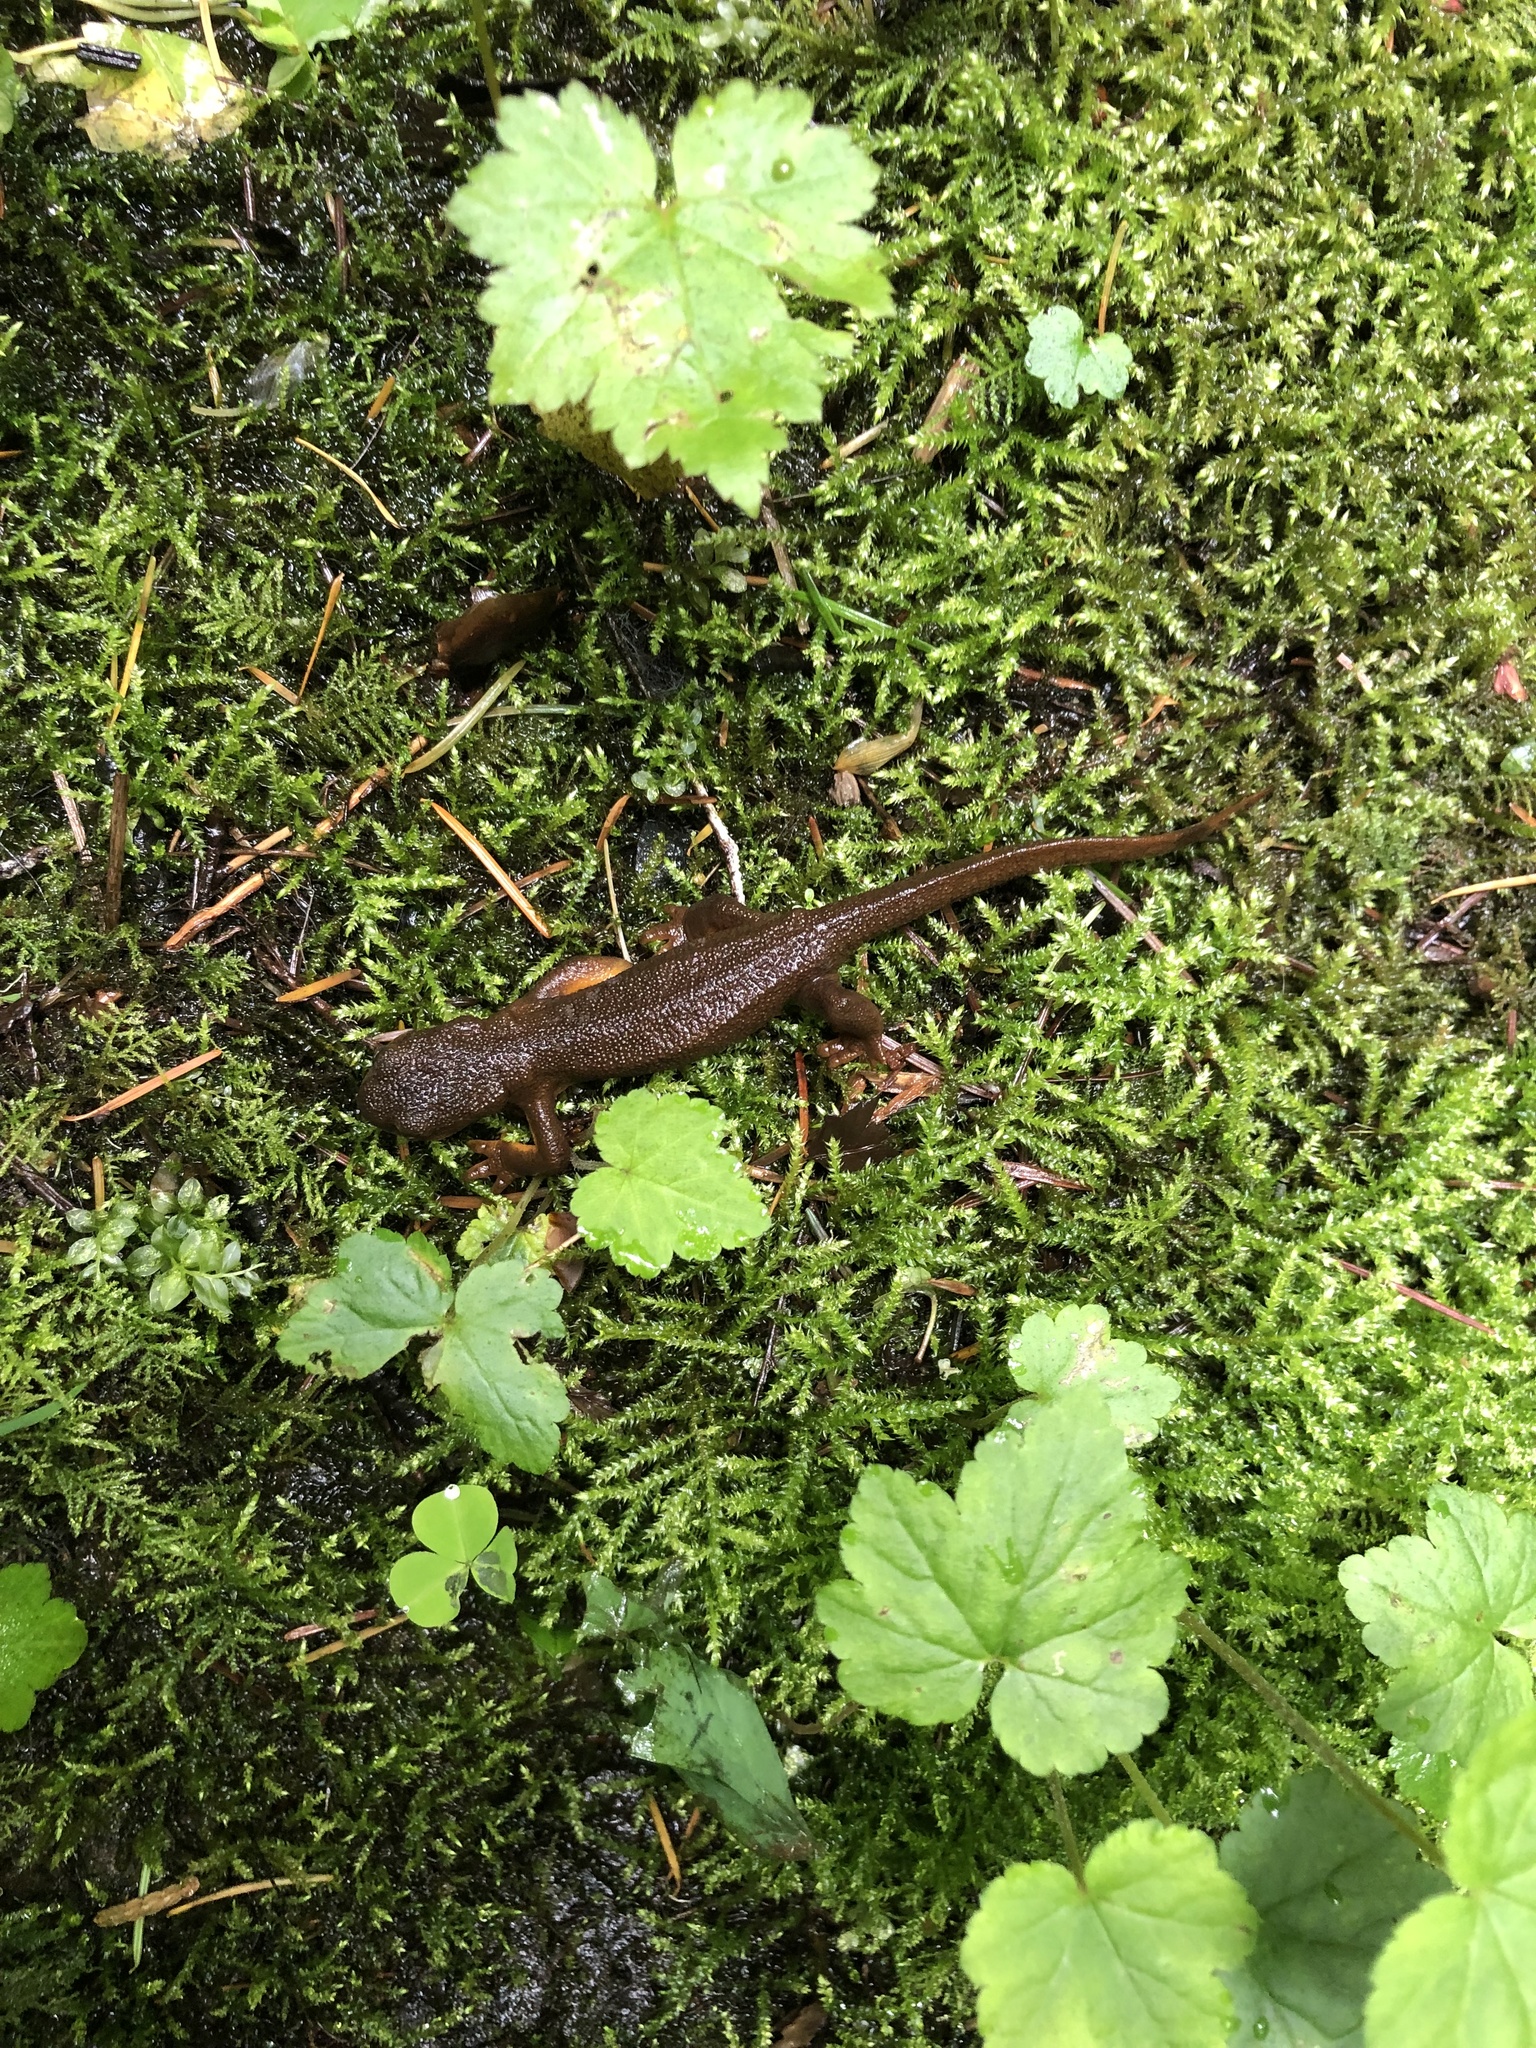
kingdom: Animalia
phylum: Chordata
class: Amphibia
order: Caudata
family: Salamandridae
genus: Taricha
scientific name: Taricha granulosa
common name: Roughskin newt
